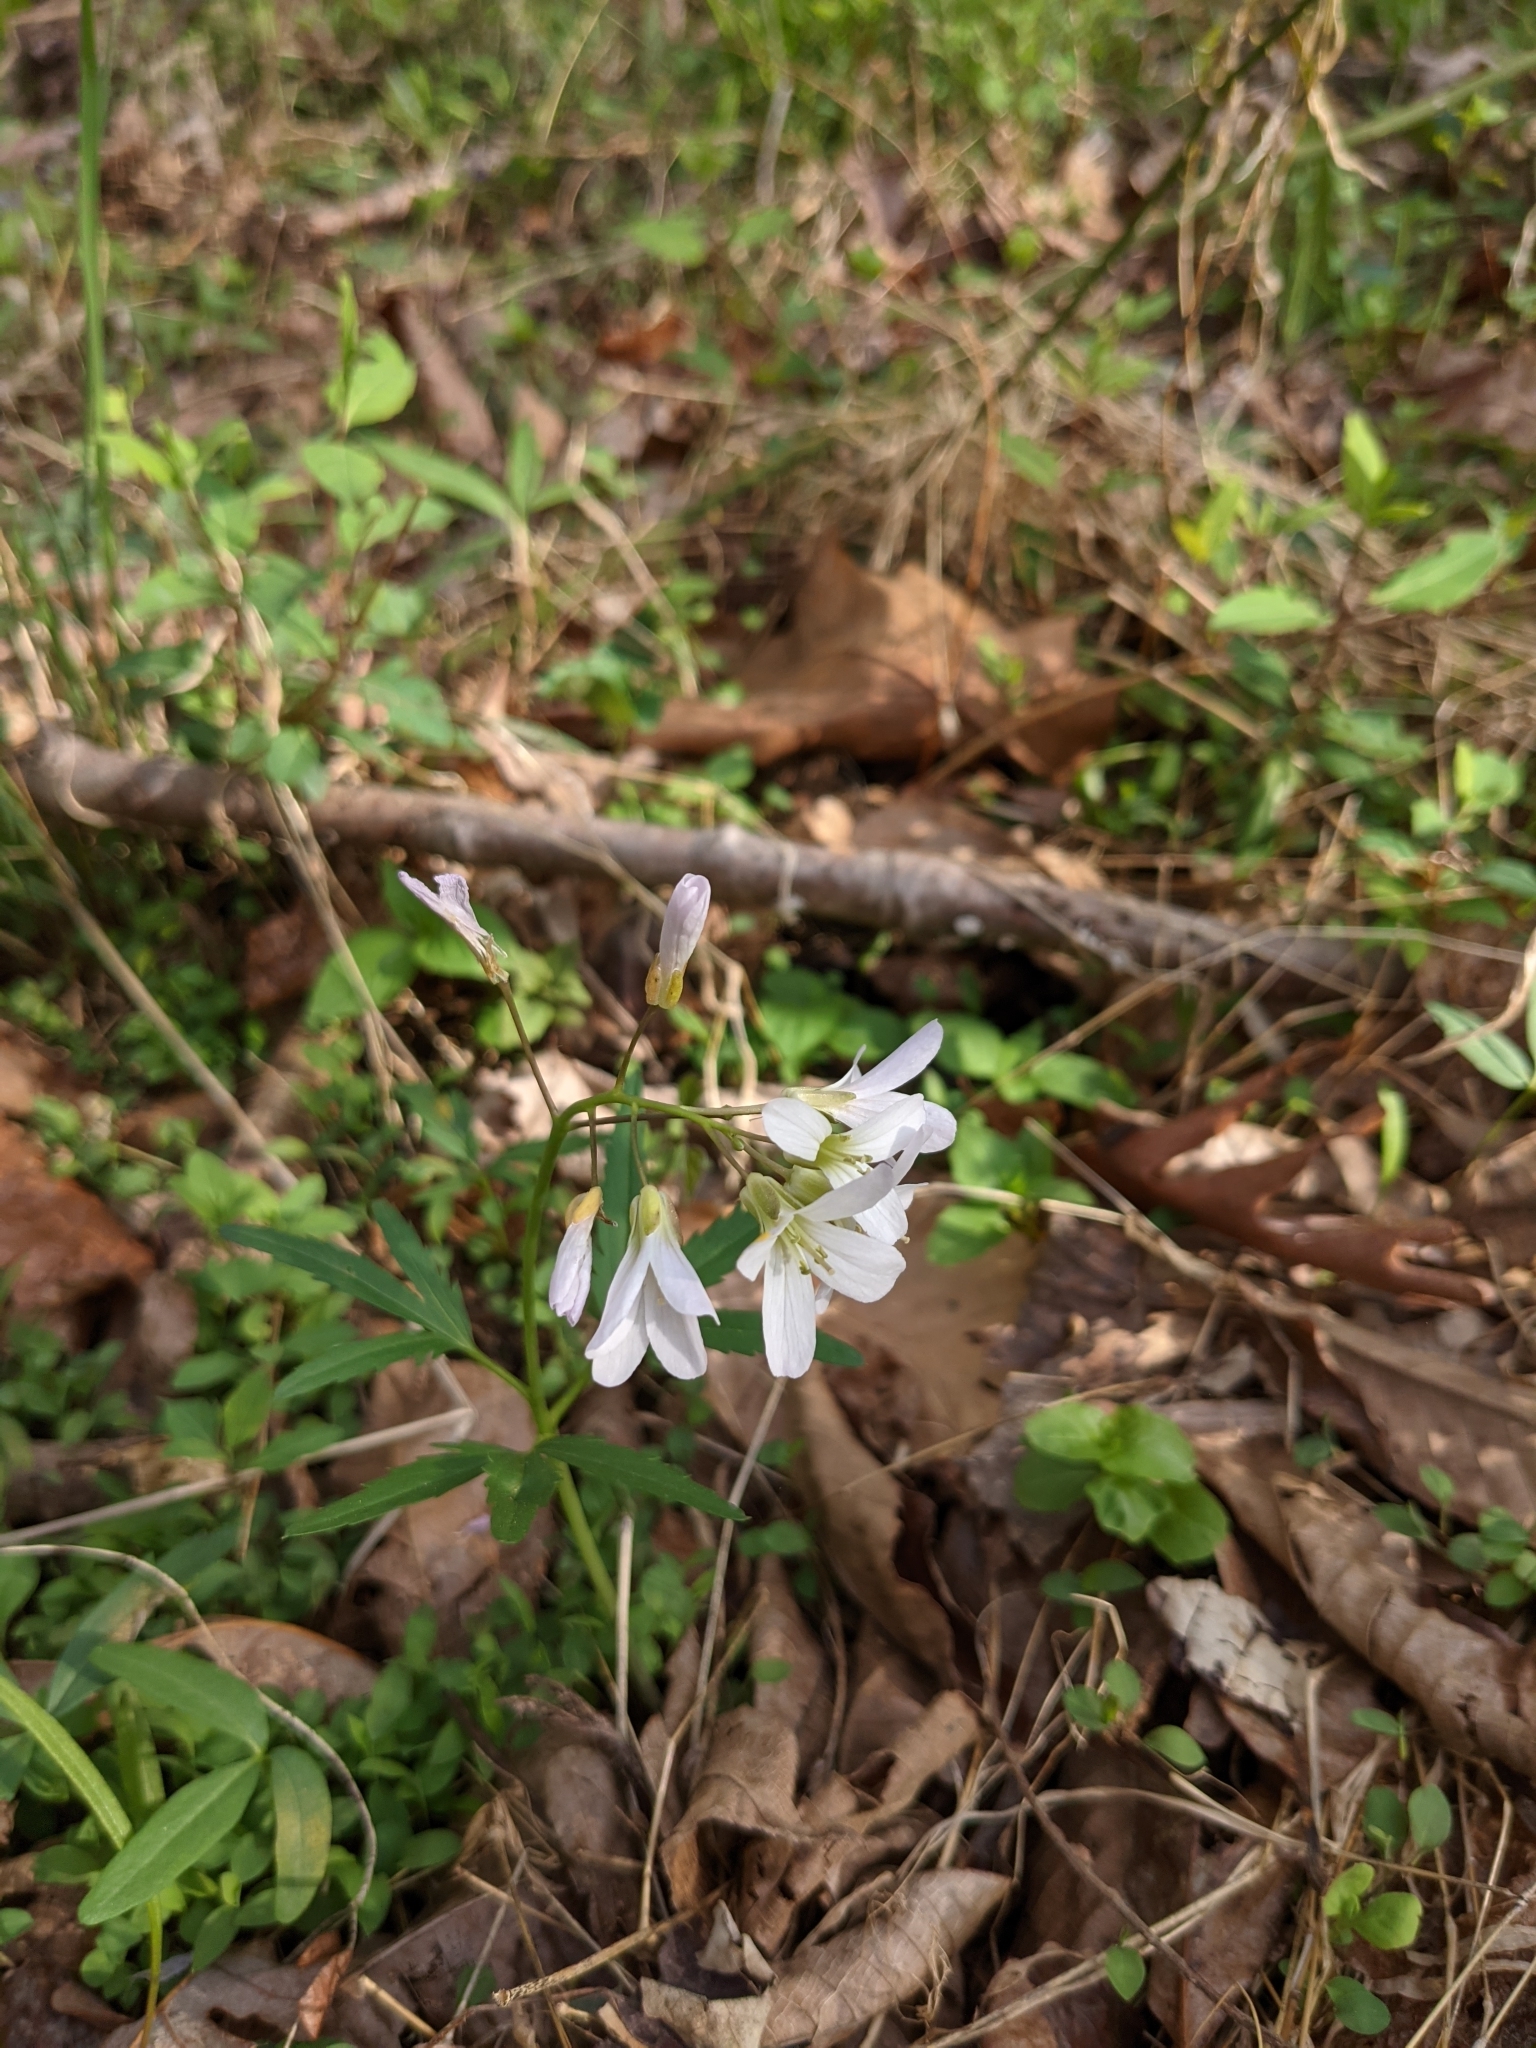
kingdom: Plantae
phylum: Tracheophyta
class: Magnoliopsida
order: Brassicales
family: Brassicaceae
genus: Cardamine
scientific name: Cardamine concatenata
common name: Cut-leaf toothcup
